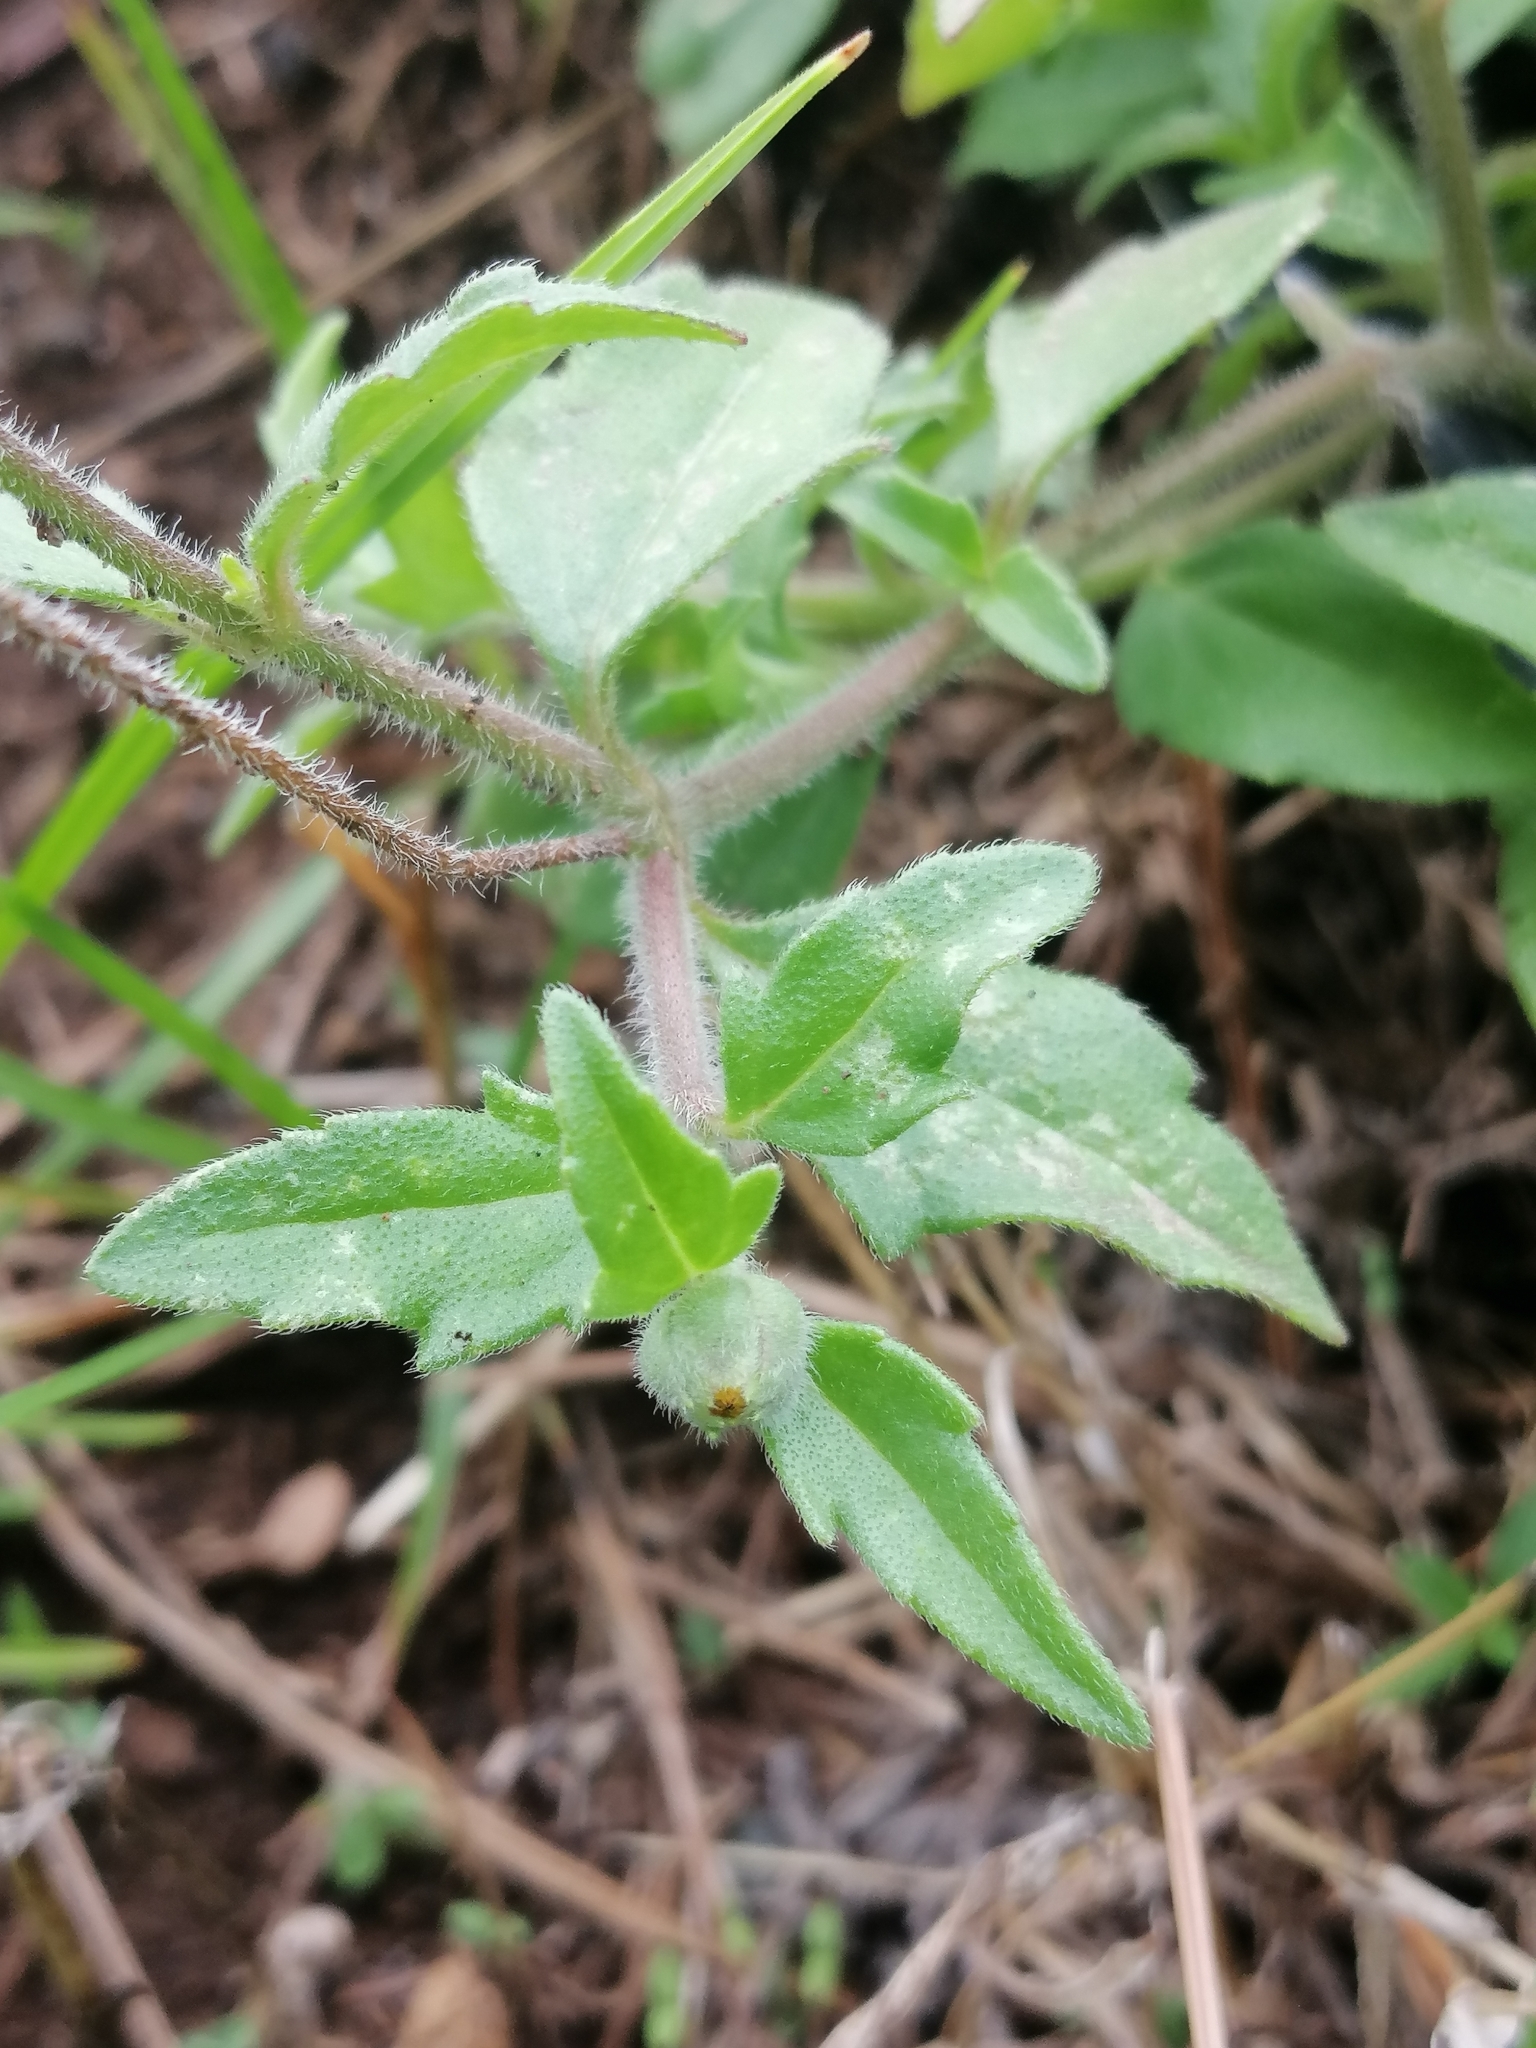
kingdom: Plantae
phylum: Tracheophyta
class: Magnoliopsida
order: Asterales
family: Asteraceae
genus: Tridax
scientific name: Tridax procumbens
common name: Coatbuttons
